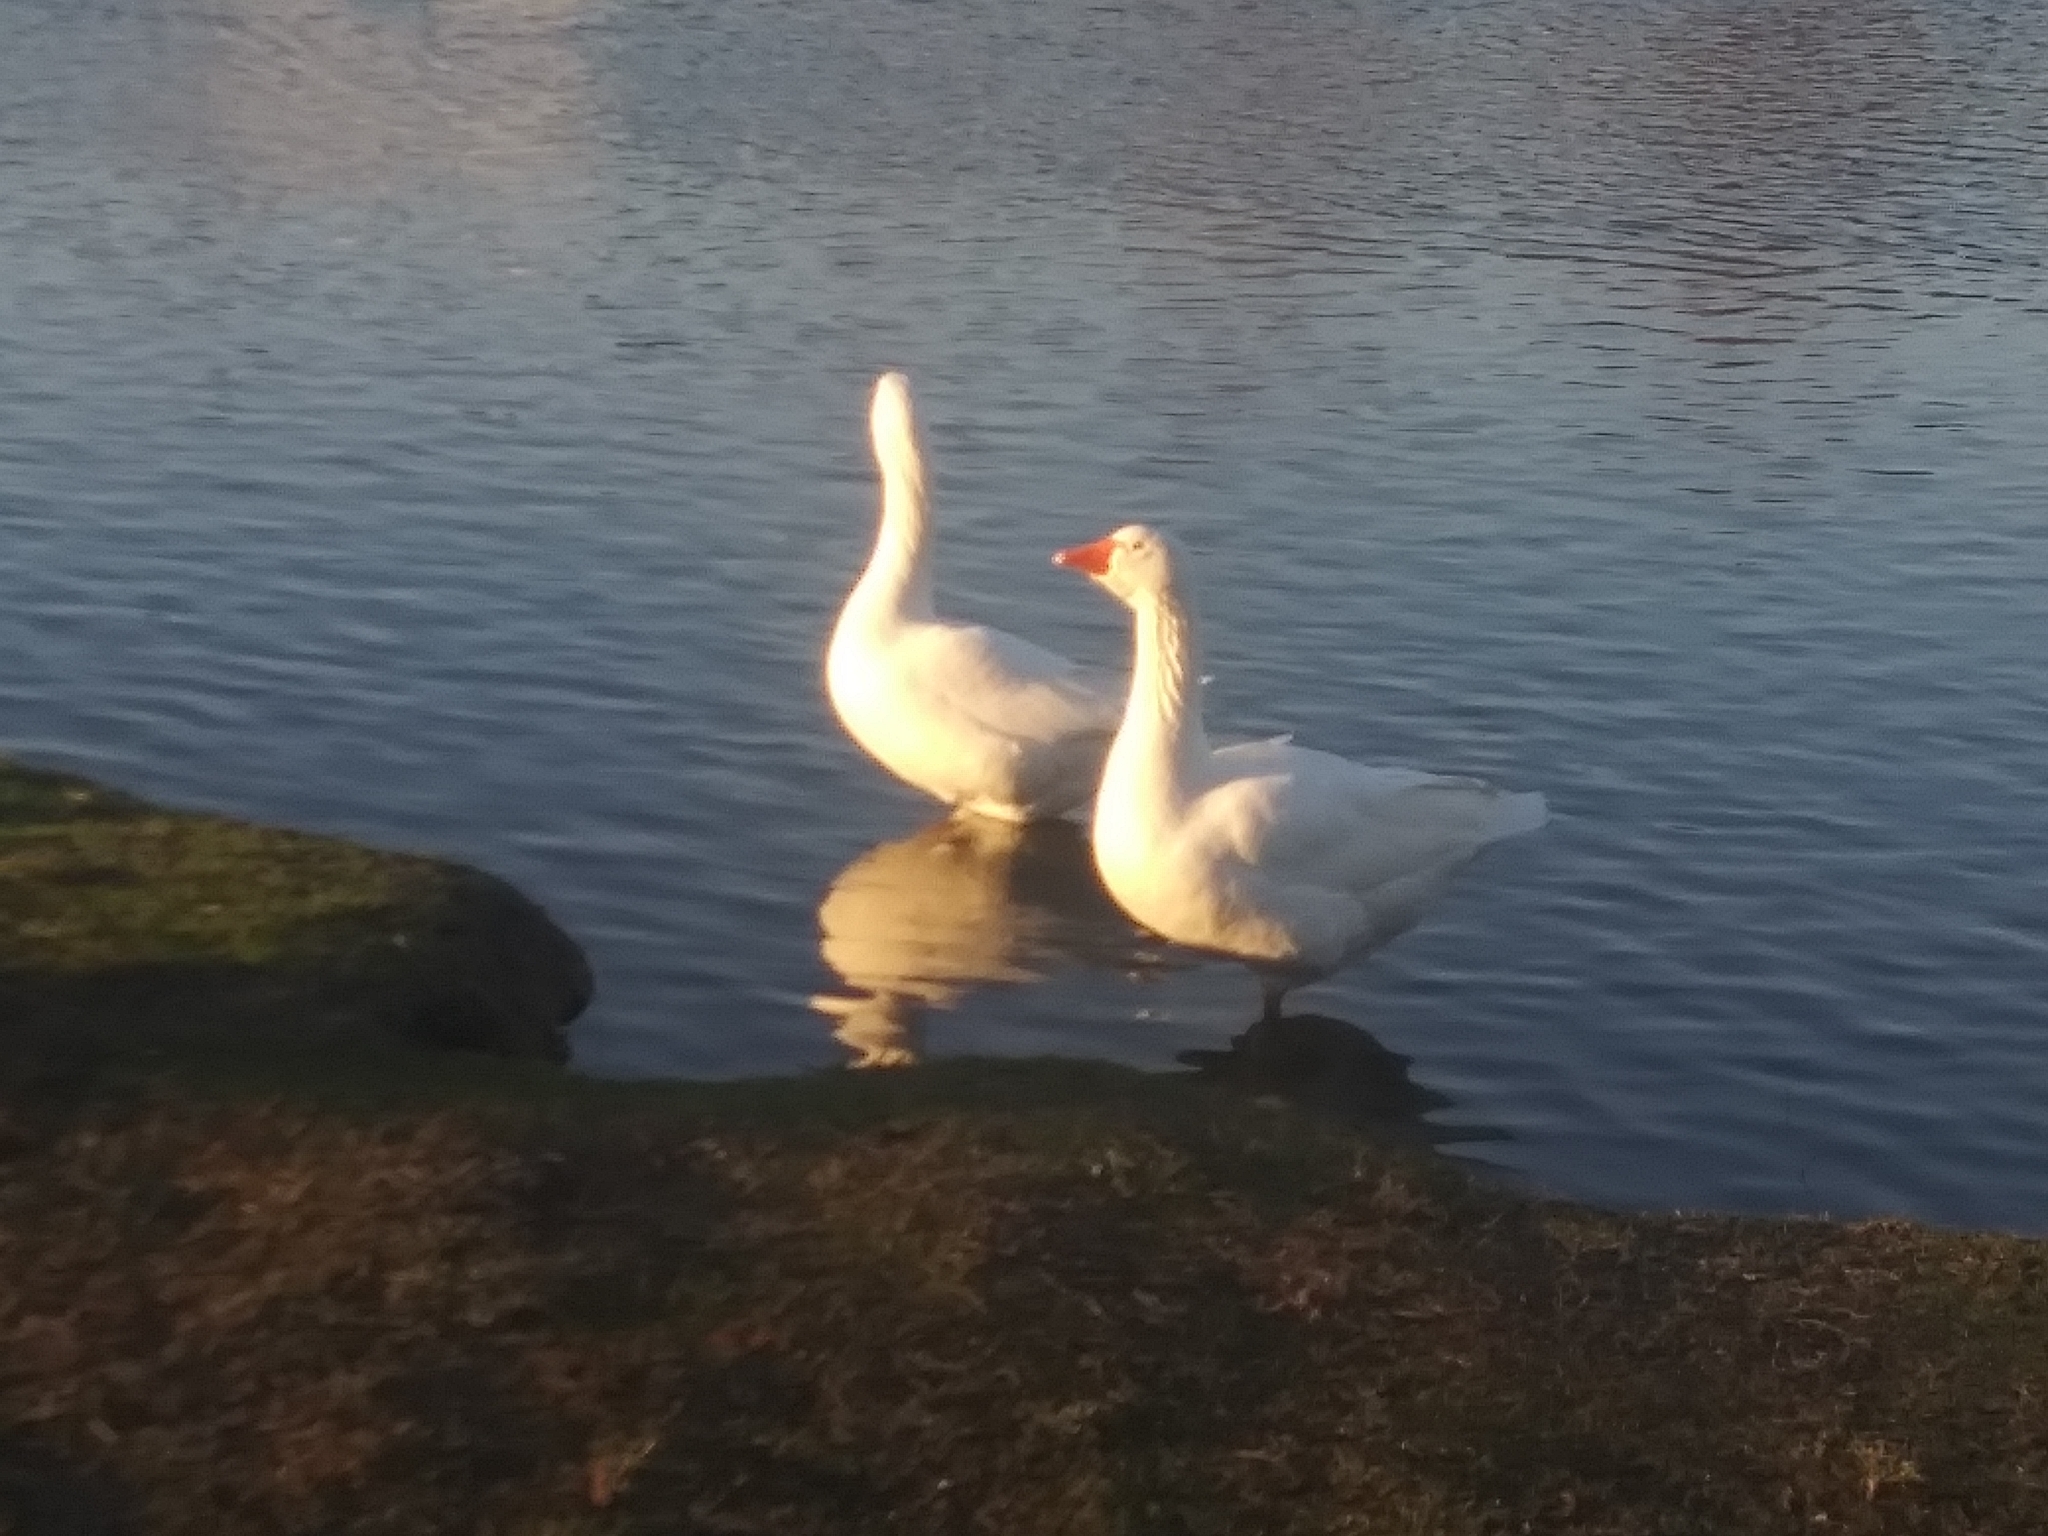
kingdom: Animalia
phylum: Chordata
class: Aves
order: Anseriformes
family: Anatidae
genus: Anser
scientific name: Anser anser
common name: Greylag goose
